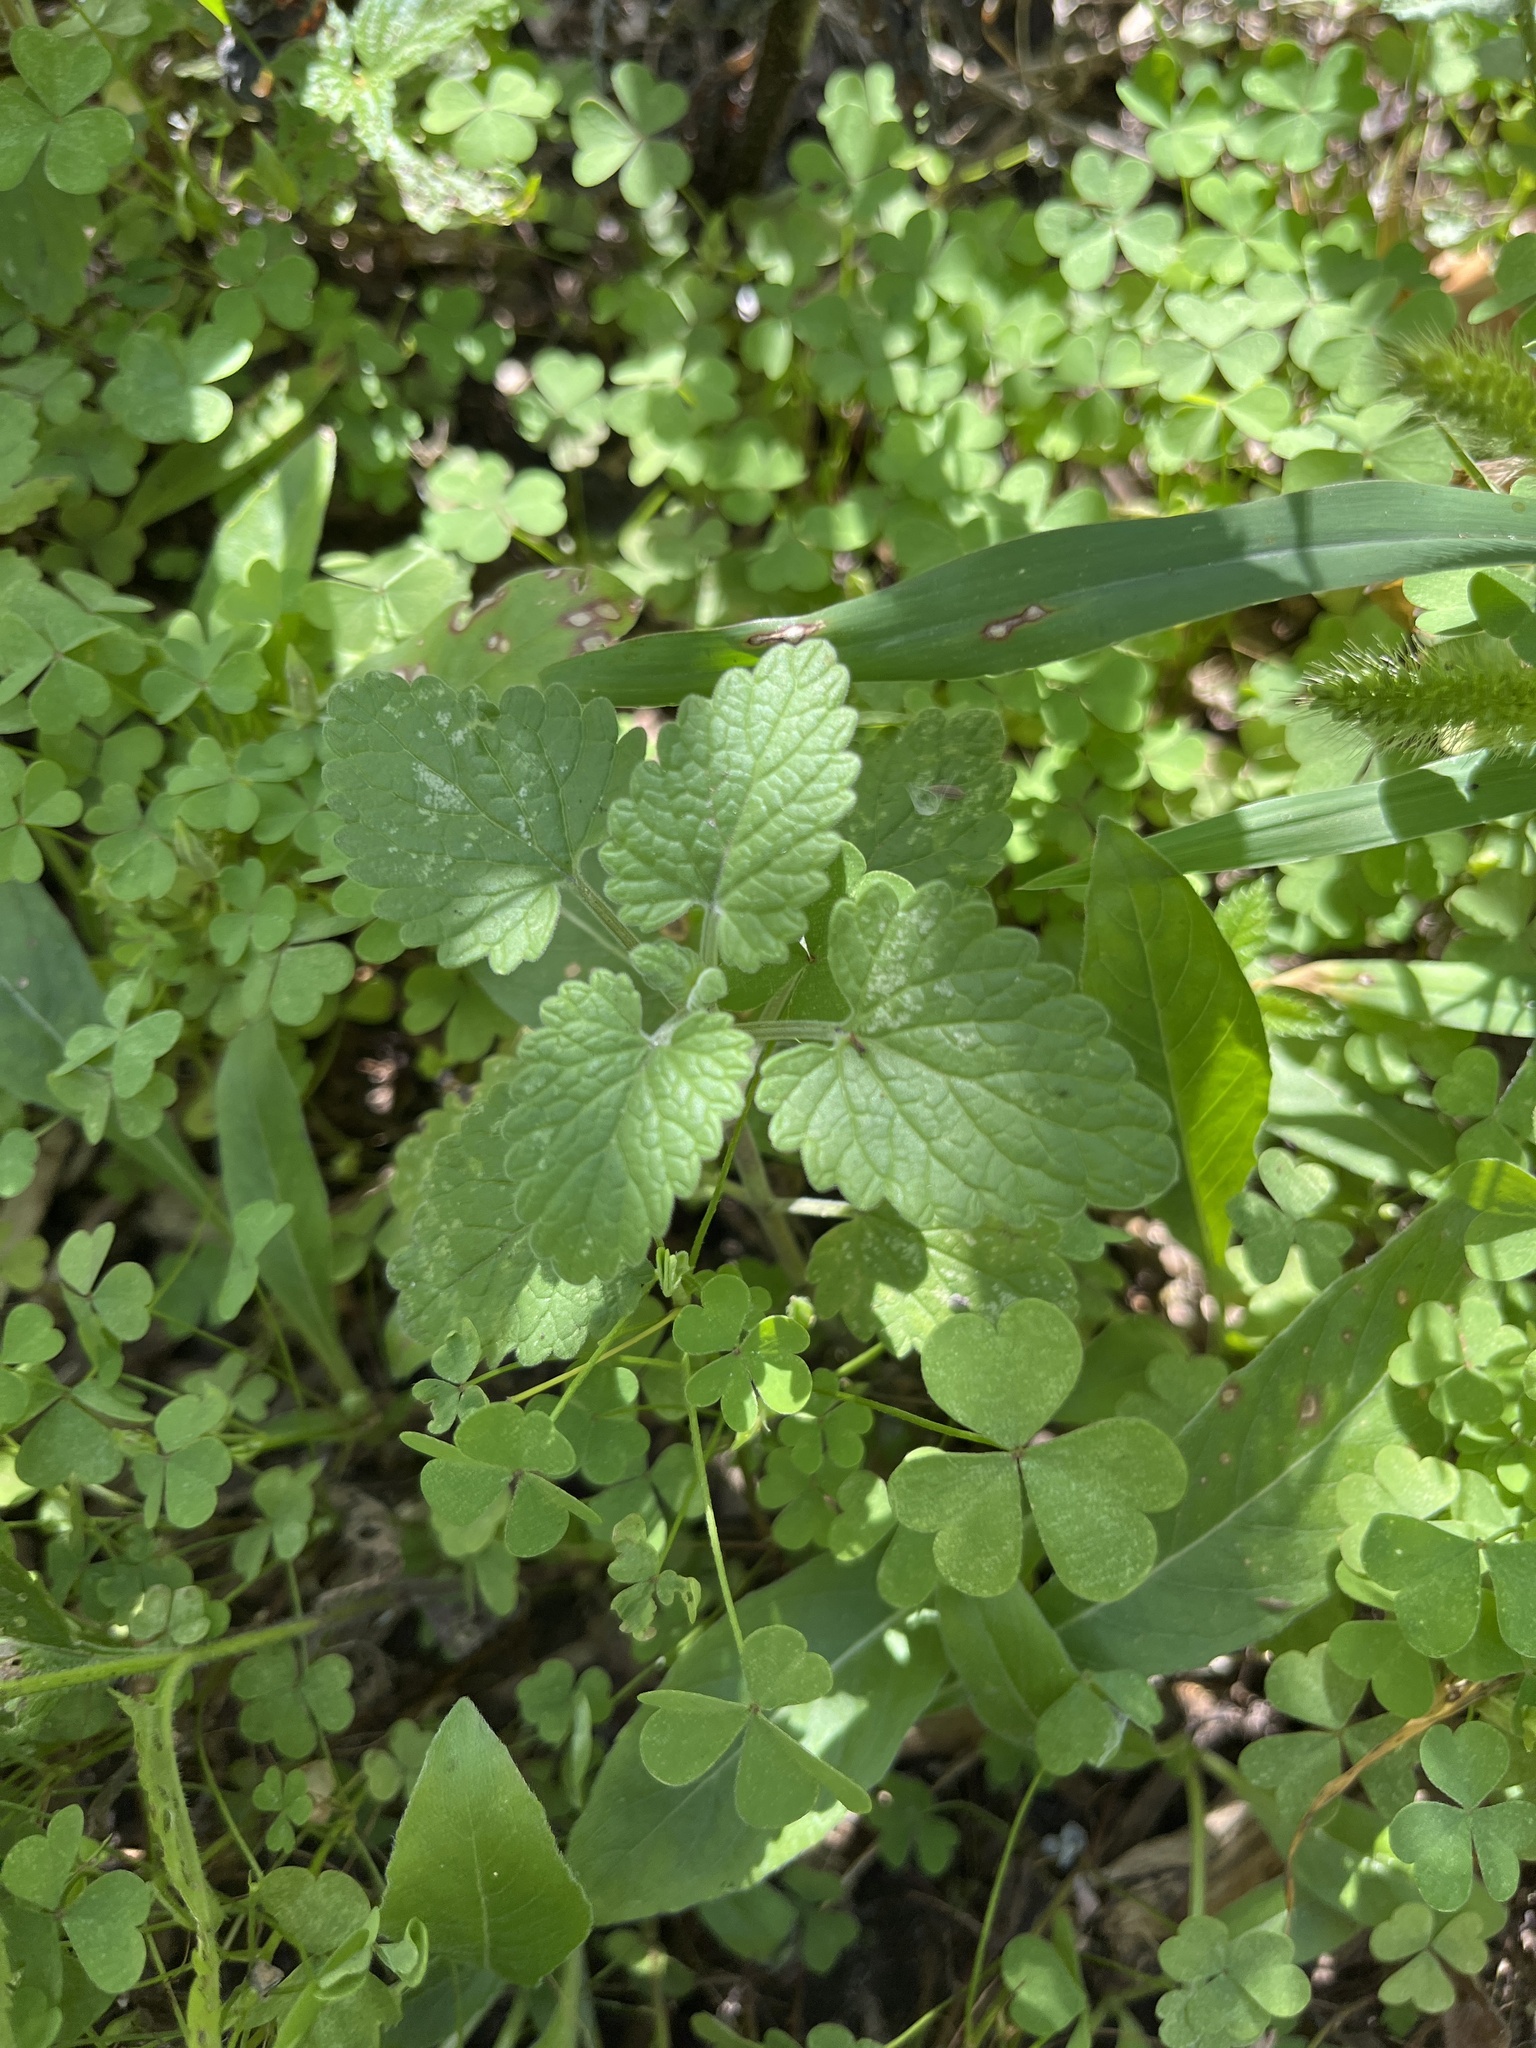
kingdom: Plantae
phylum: Tracheophyta
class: Magnoliopsida
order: Lamiales
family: Lamiaceae
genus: Nepeta
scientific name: Nepeta cataria
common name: Catnip
